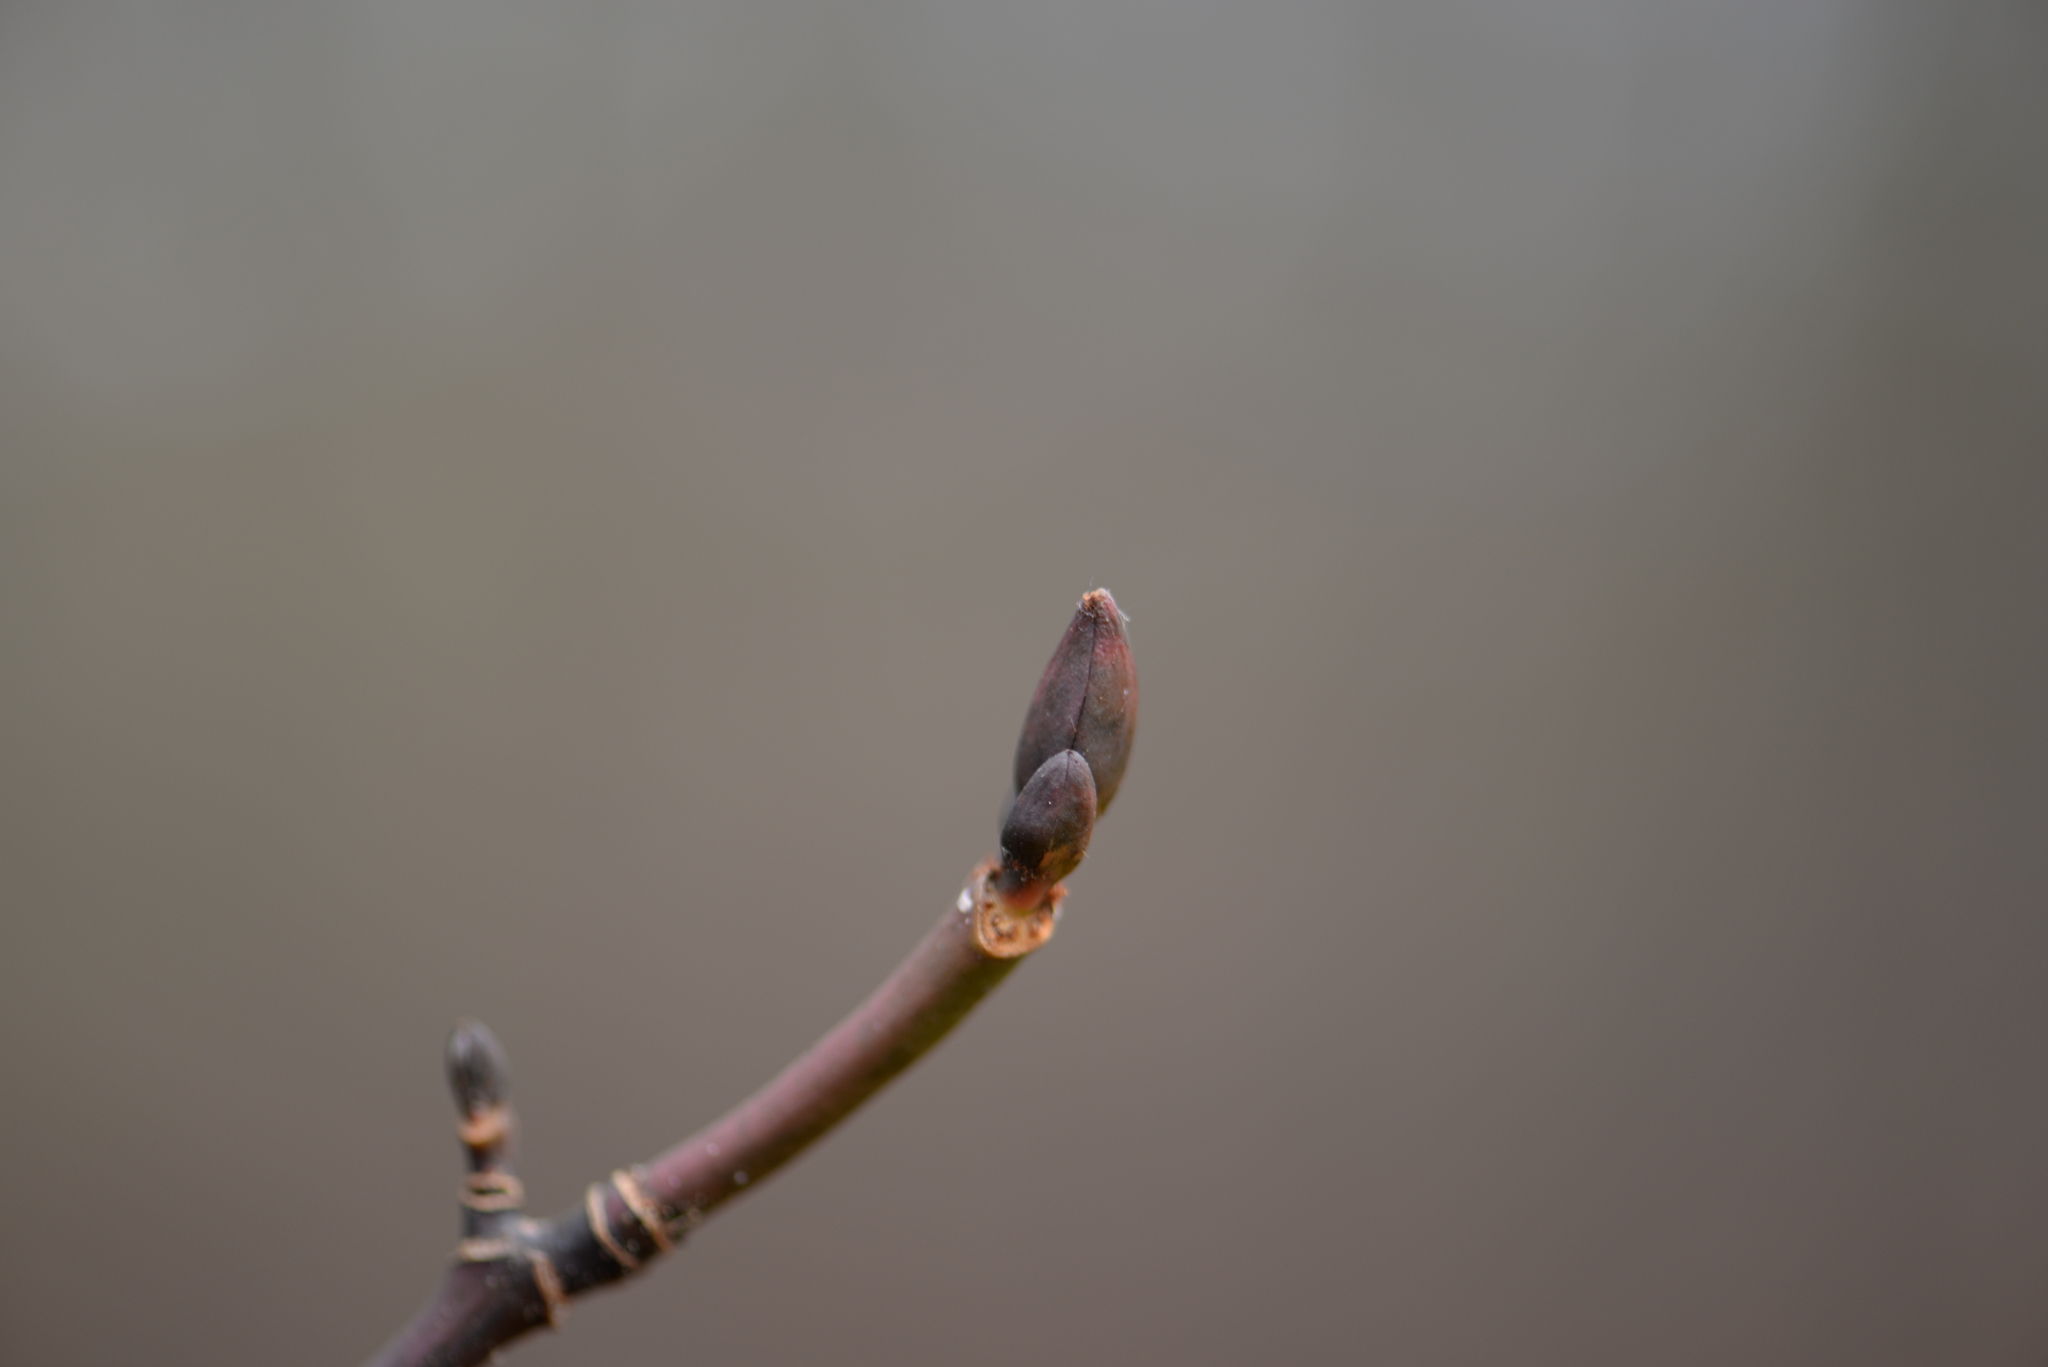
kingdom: Plantae
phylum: Tracheophyta
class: Magnoliopsida
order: Sapindales
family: Sapindaceae
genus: Acer
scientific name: Acer pensylvanicum
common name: Moosewood
